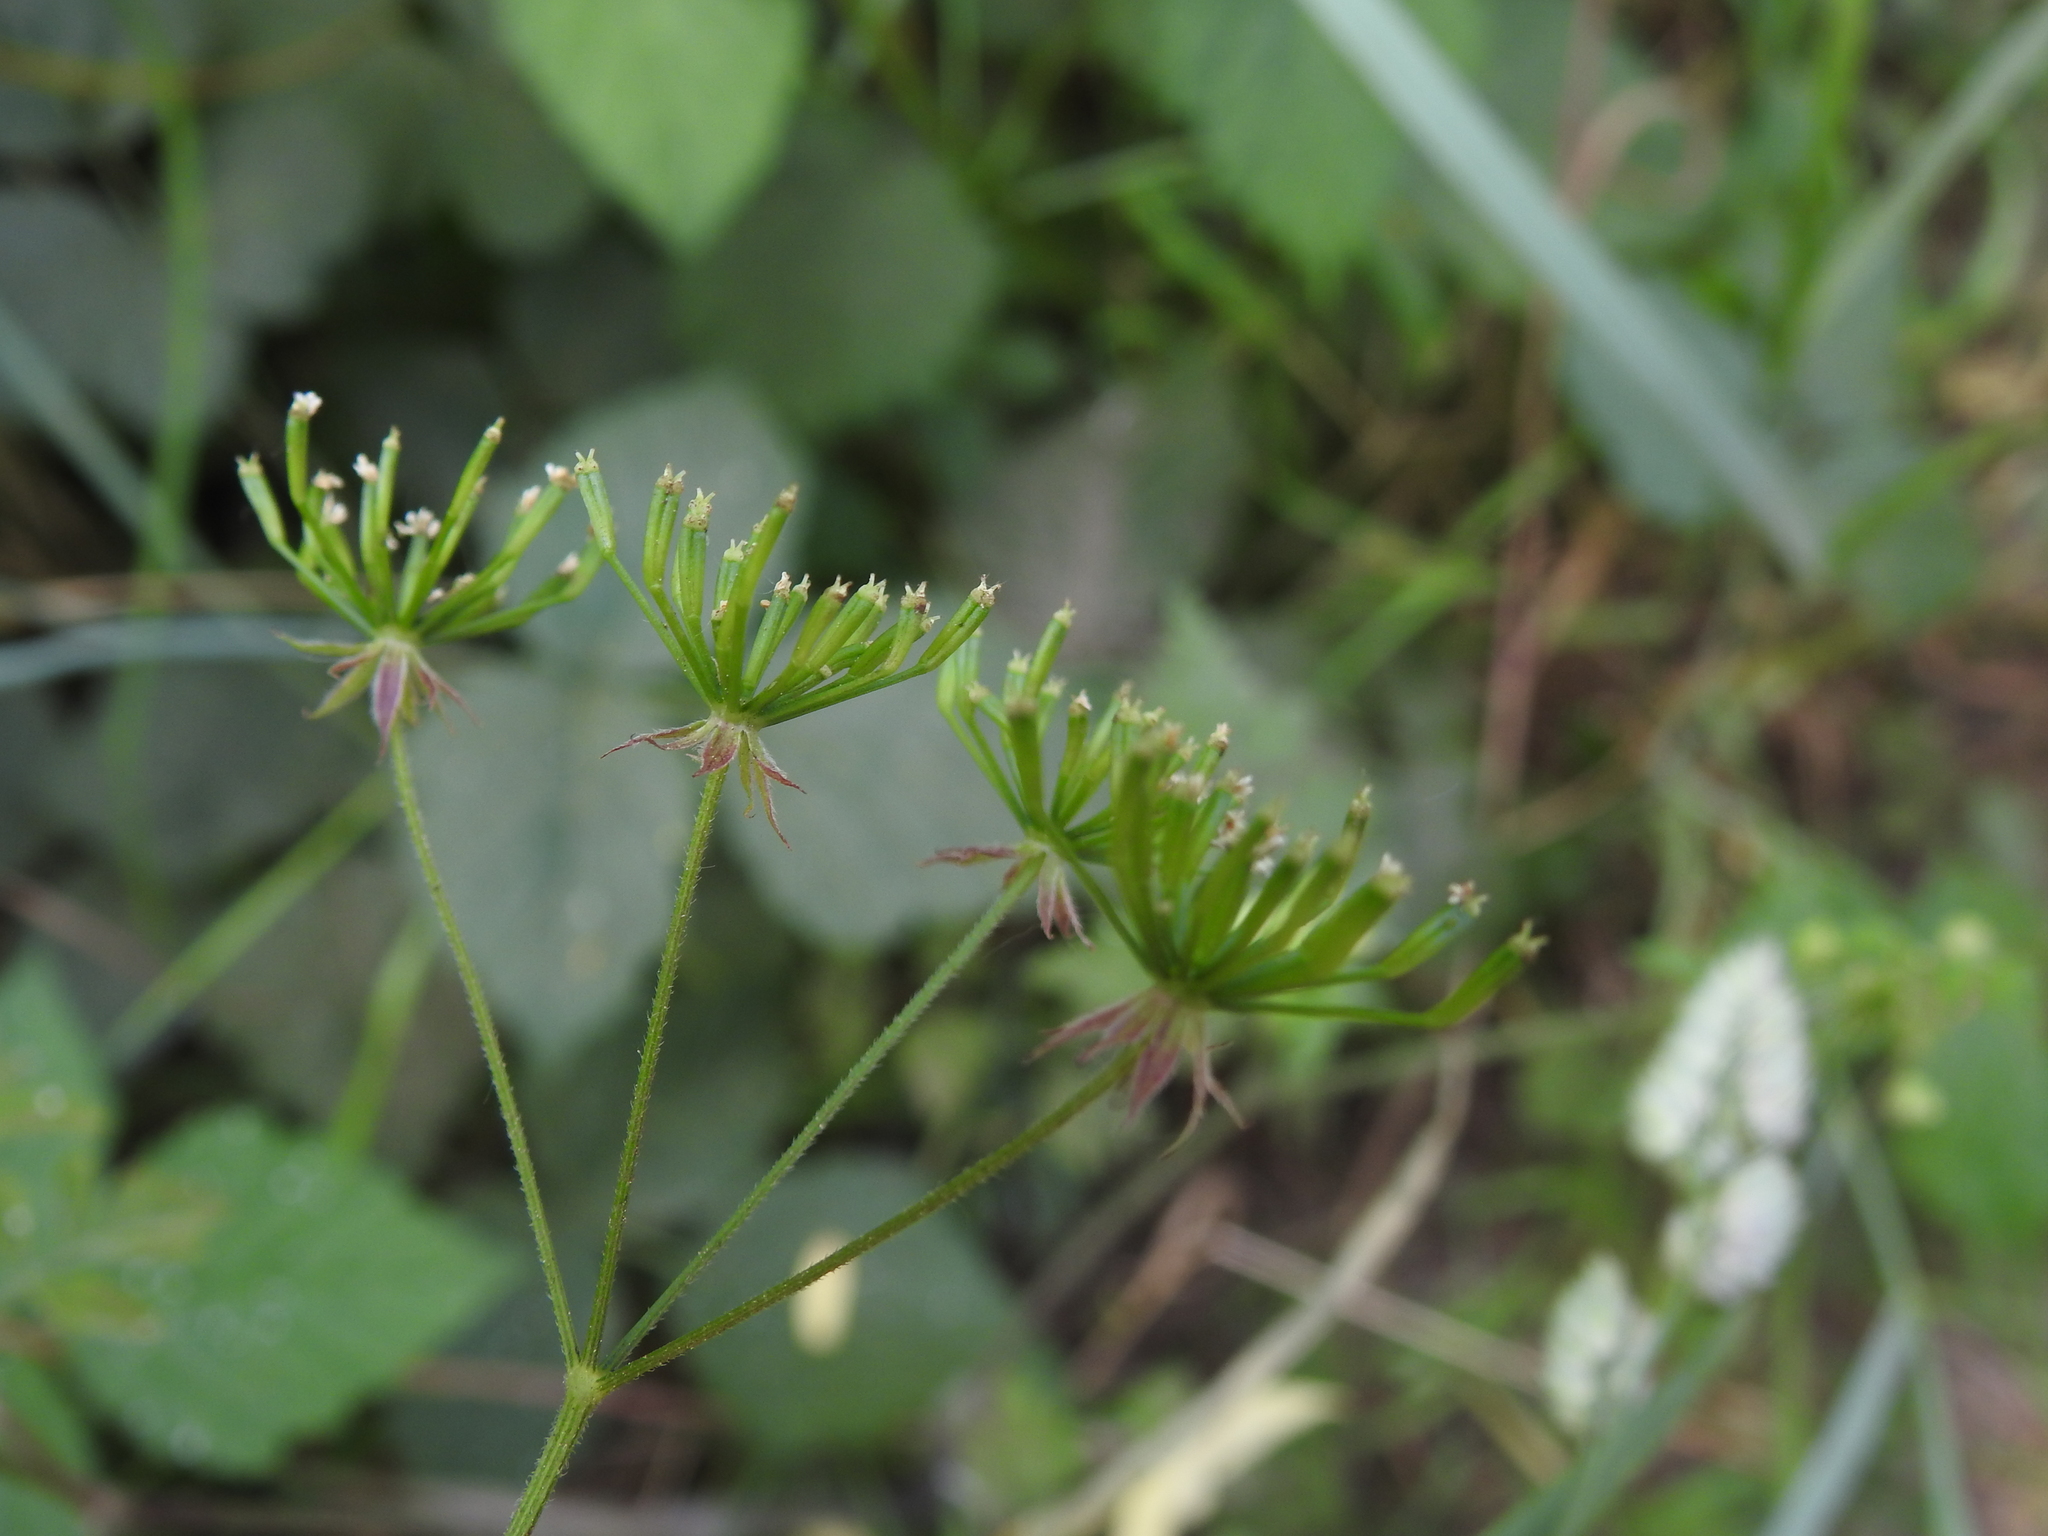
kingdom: Plantae
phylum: Tracheophyta
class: Magnoliopsida
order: Apiales
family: Apiaceae
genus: Chaerophyllum
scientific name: Chaerophyllum temulum
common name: Rough chervil
